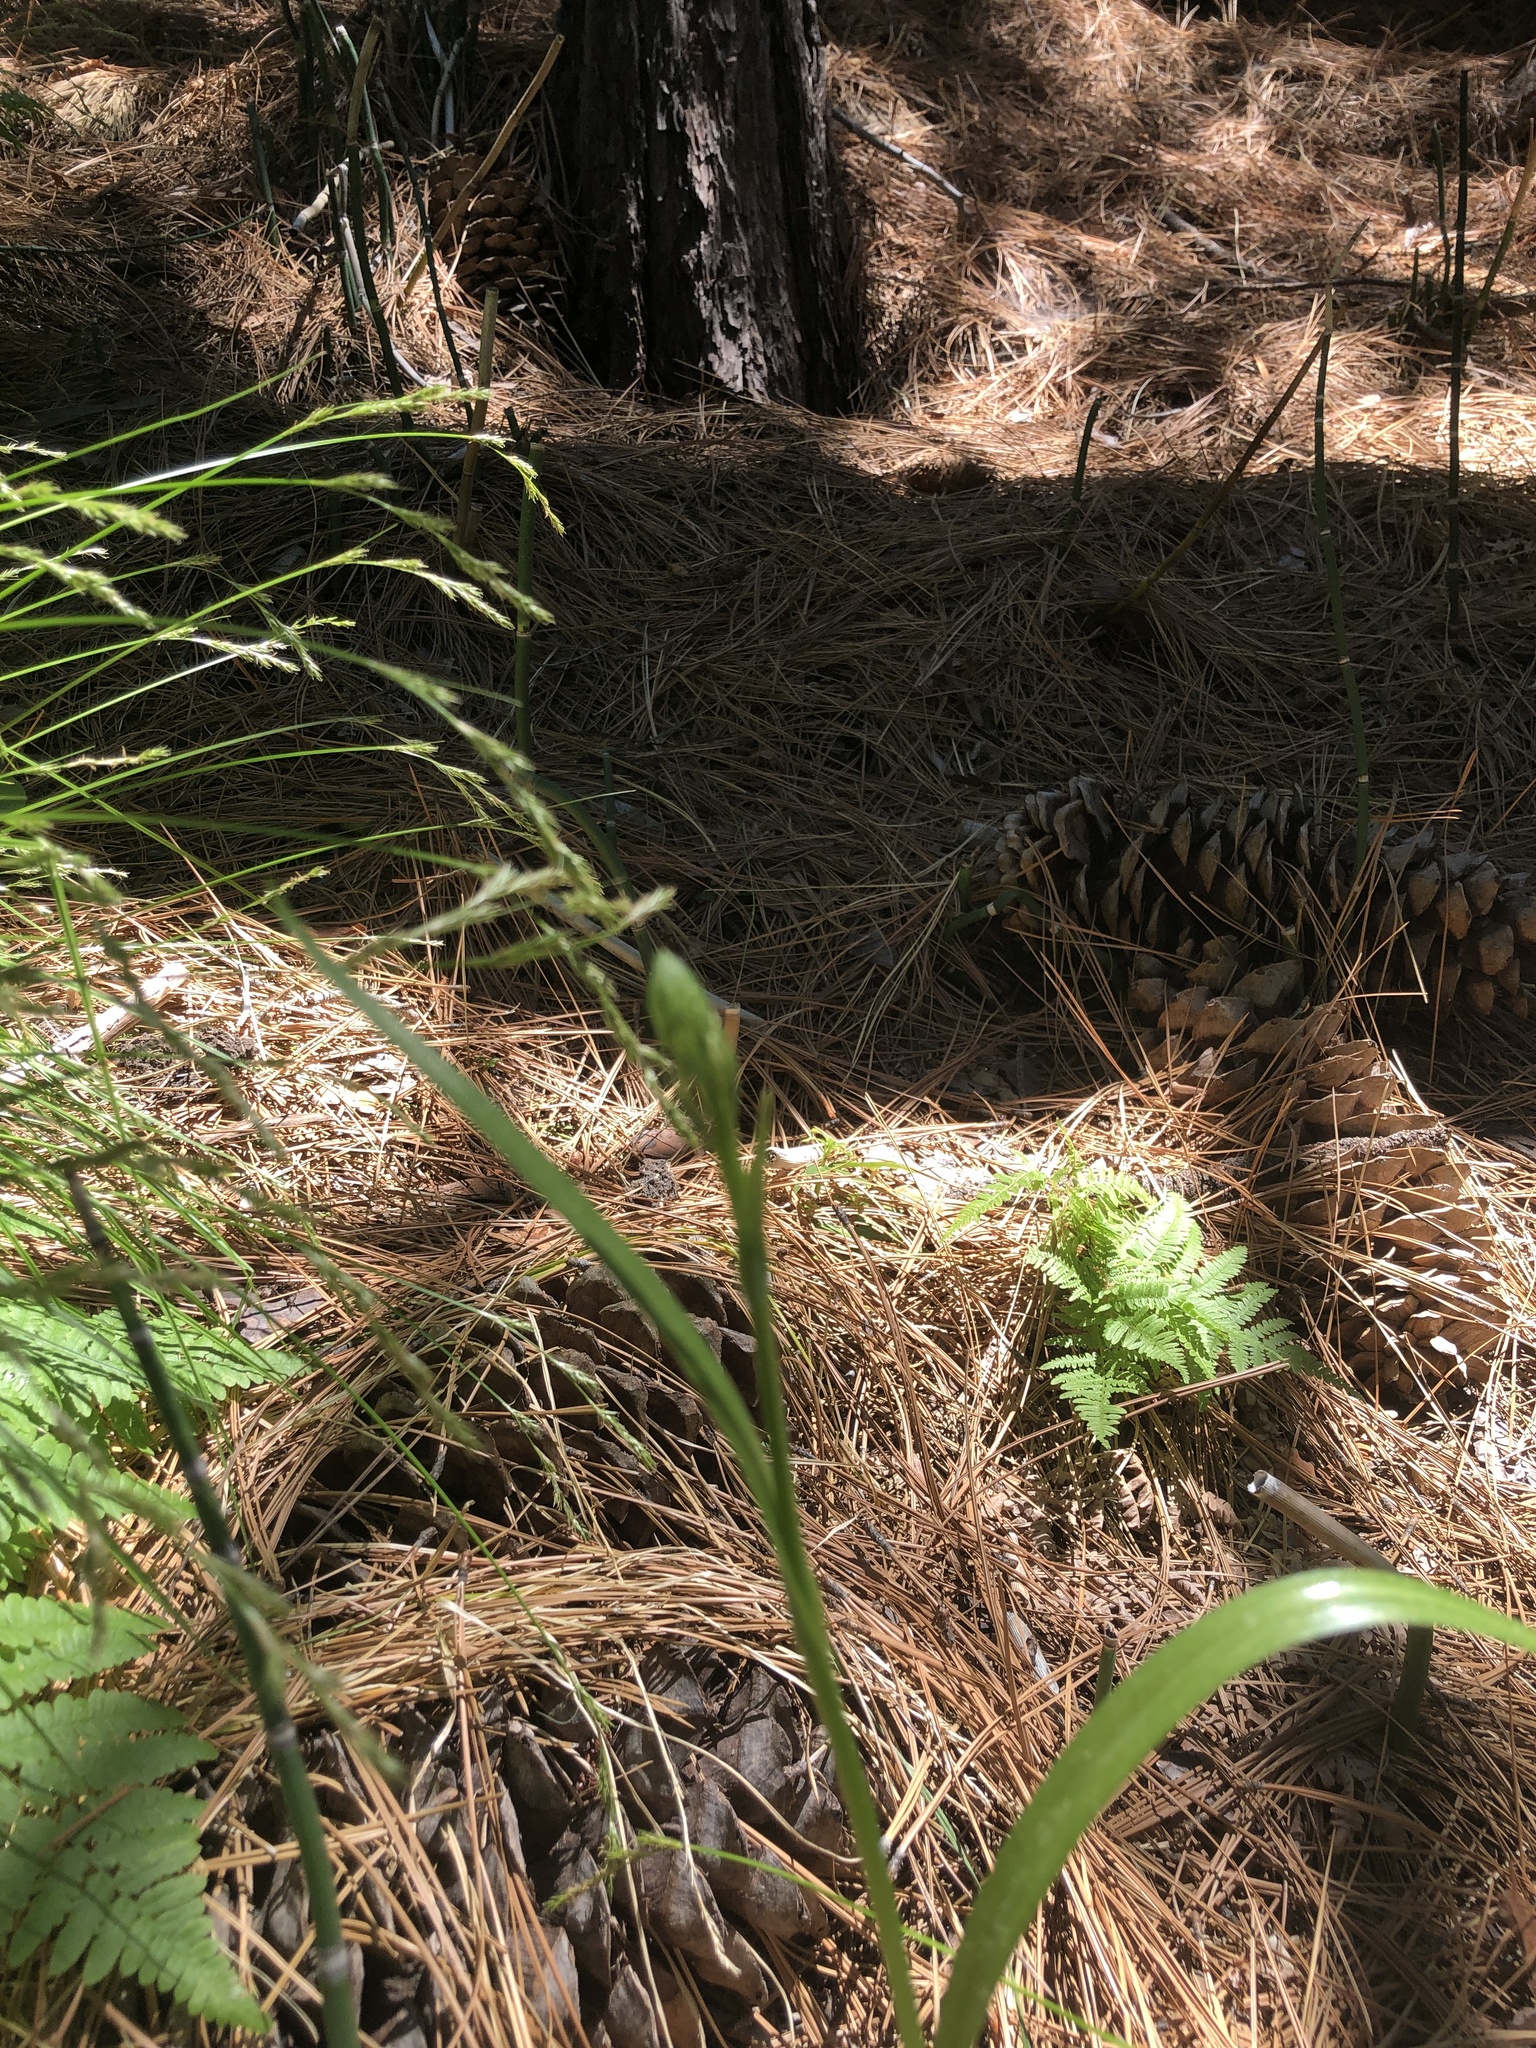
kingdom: Plantae
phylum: Tracheophyta
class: Liliopsida
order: Asparagales
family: Orchidaceae
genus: Platanthera
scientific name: Platanthera dilatata
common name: Bog candles
